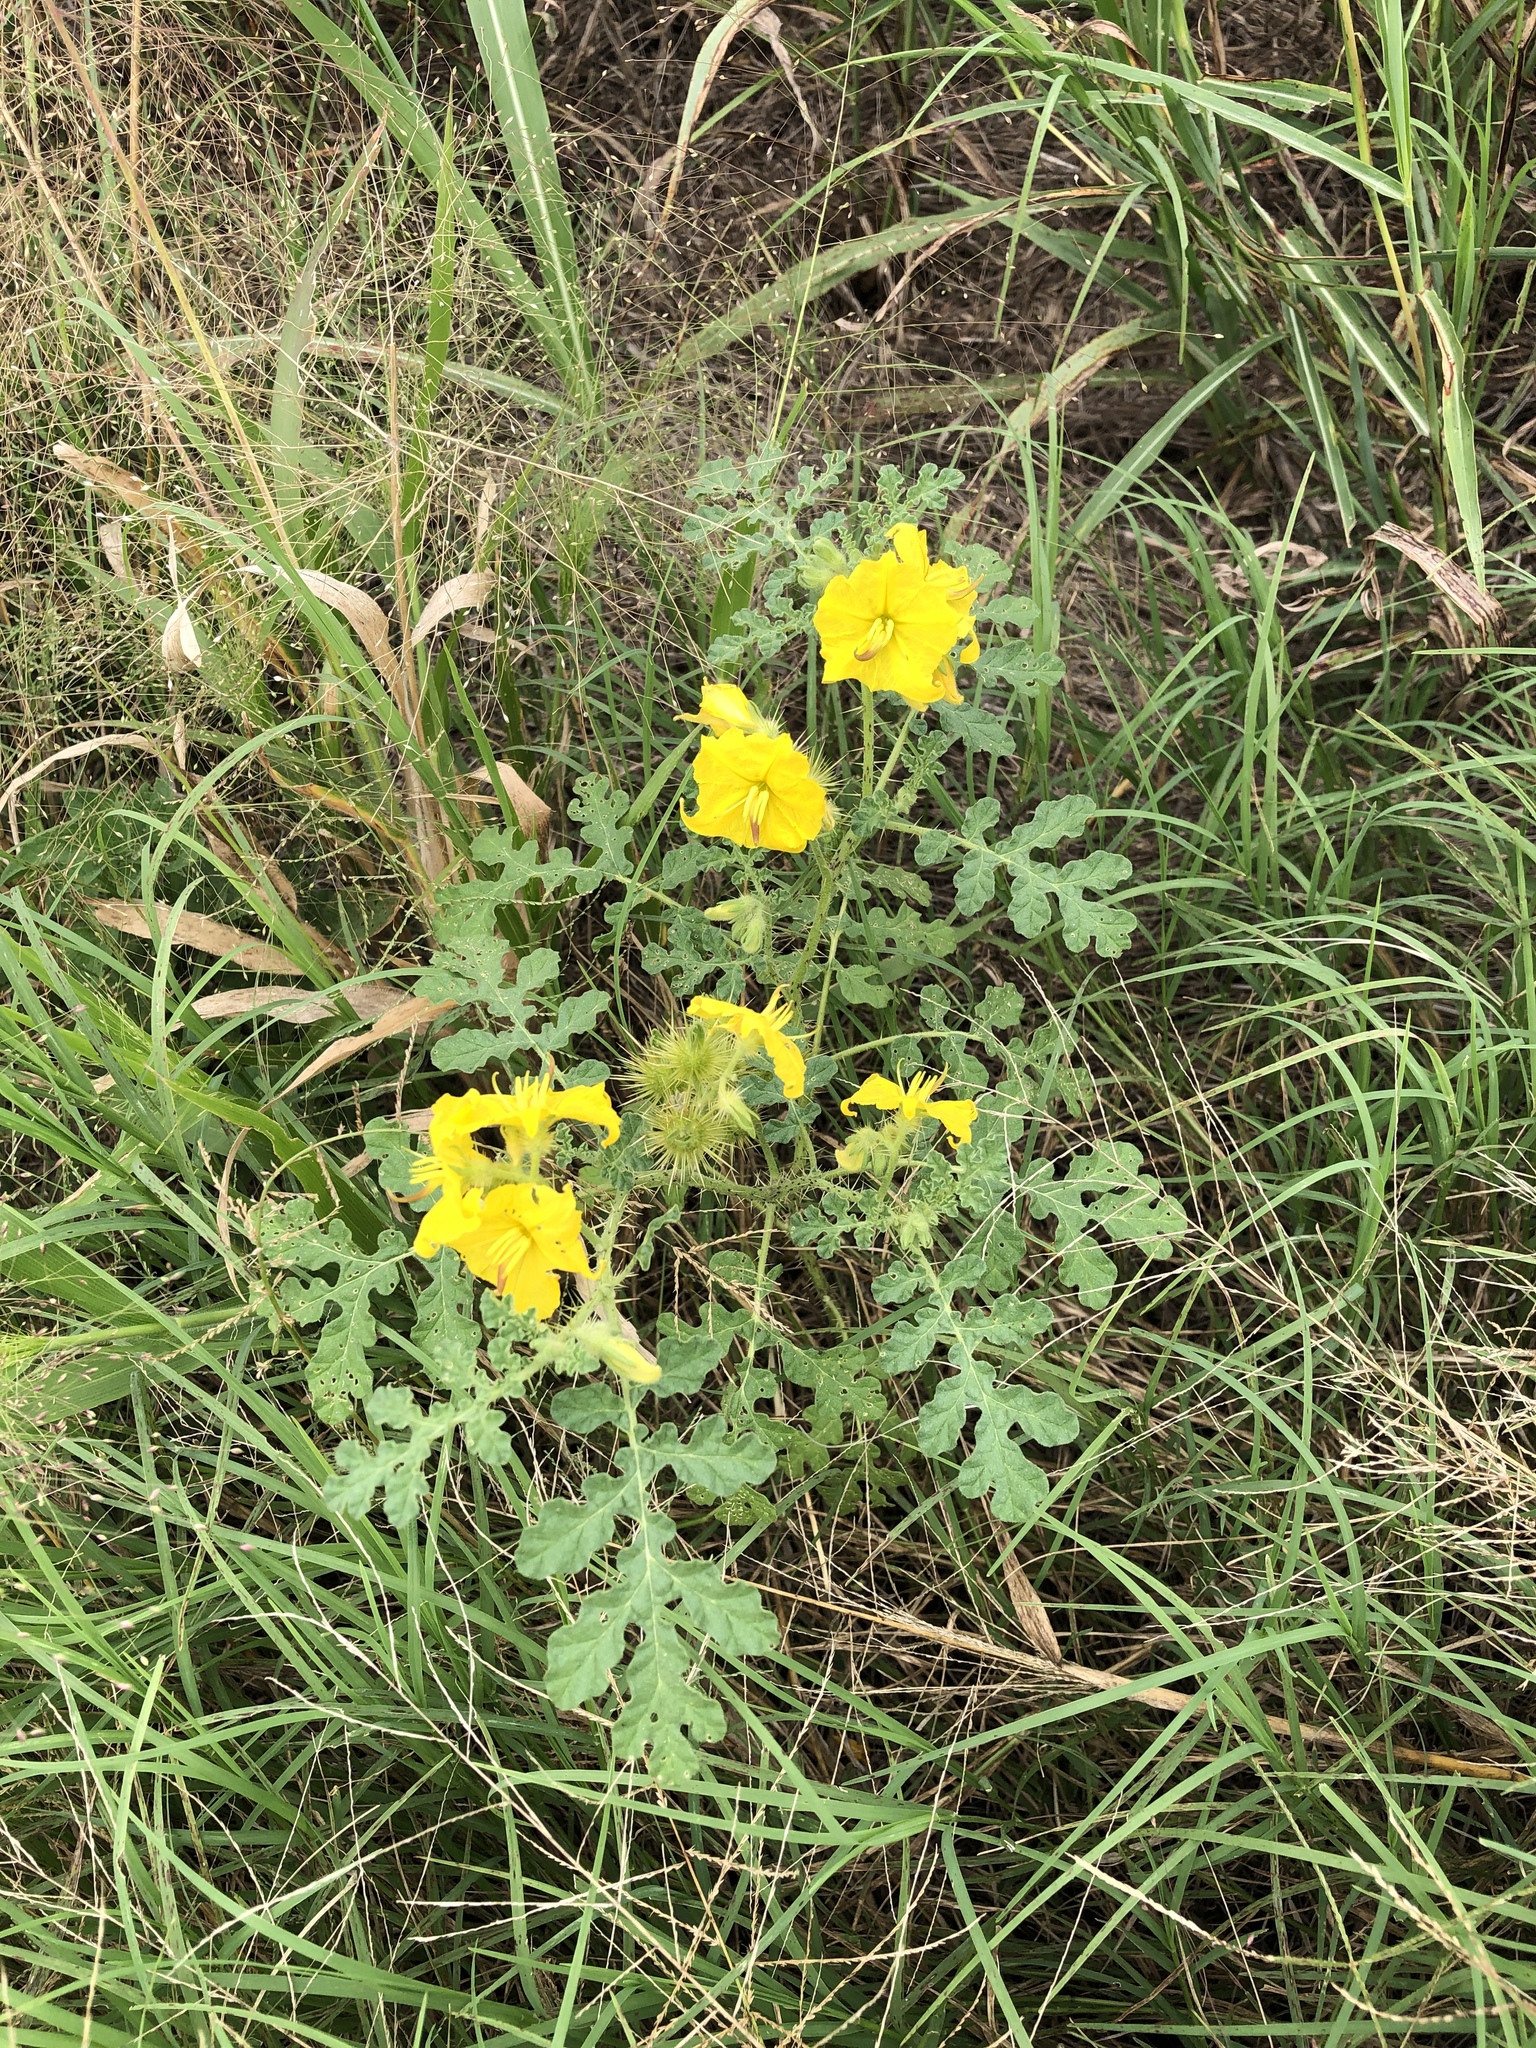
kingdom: Plantae
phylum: Tracheophyta
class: Magnoliopsida
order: Solanales
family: Solanaceae
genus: Solanum
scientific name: Solanum angustifolium
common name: Buffalobur nightshade
